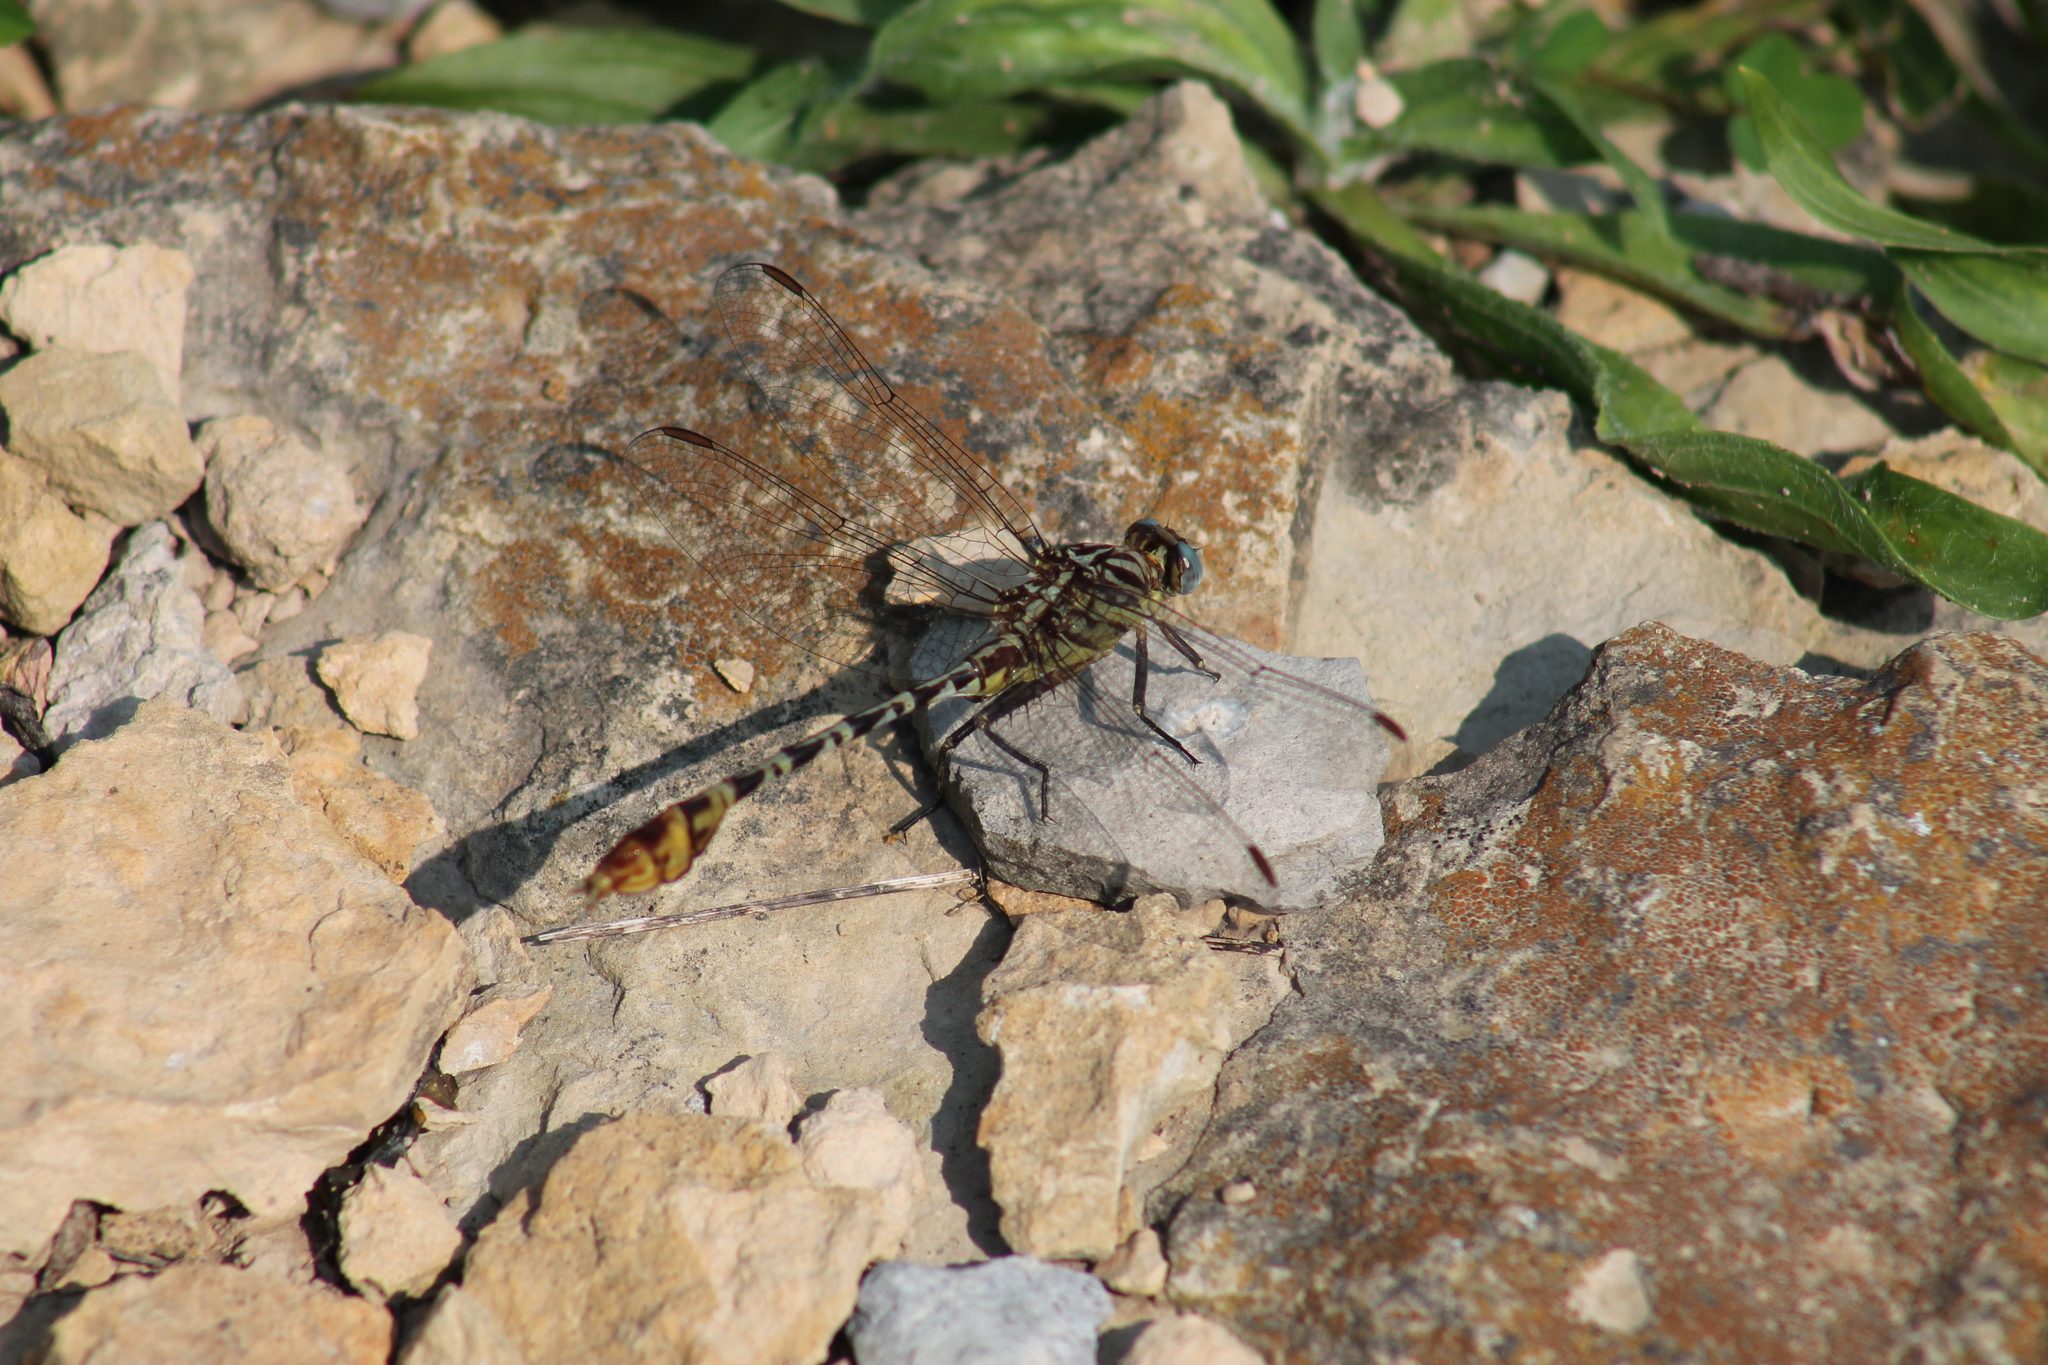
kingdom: Animalia
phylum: Arthropoda
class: Insecta
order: Odonata
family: Gomphidae
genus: Dromogomphus
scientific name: Dromogomphus spoliatus
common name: Flag-tailed spinyleg
